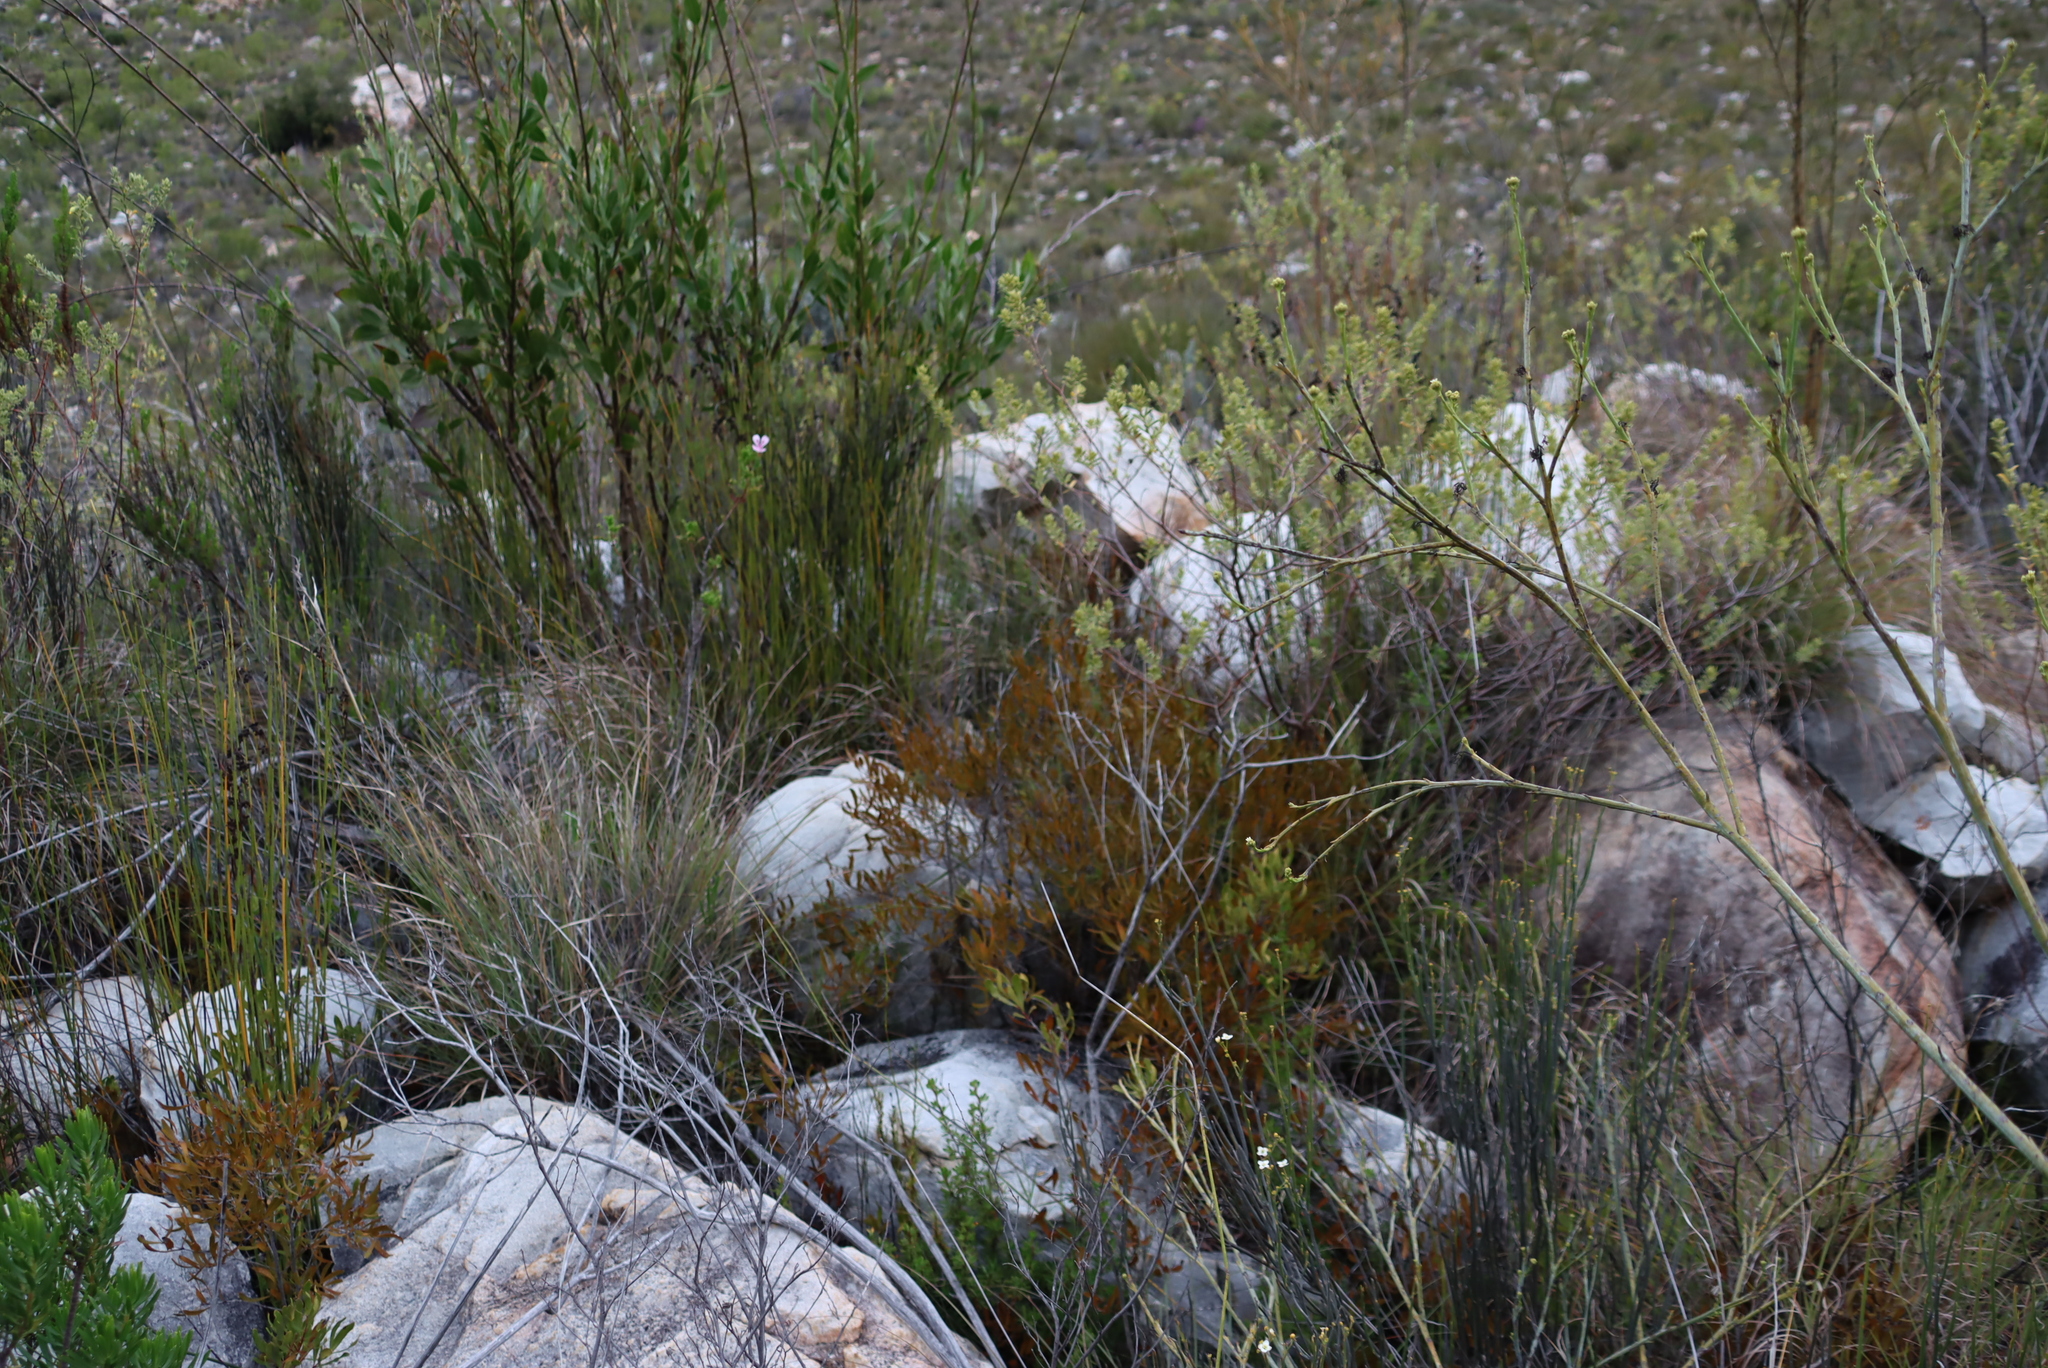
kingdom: Plantae
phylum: Tracheophyta
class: Magnoliopsida
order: Asterales
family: Asteraceae
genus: Osteospermum
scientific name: Osteospermum junceum
